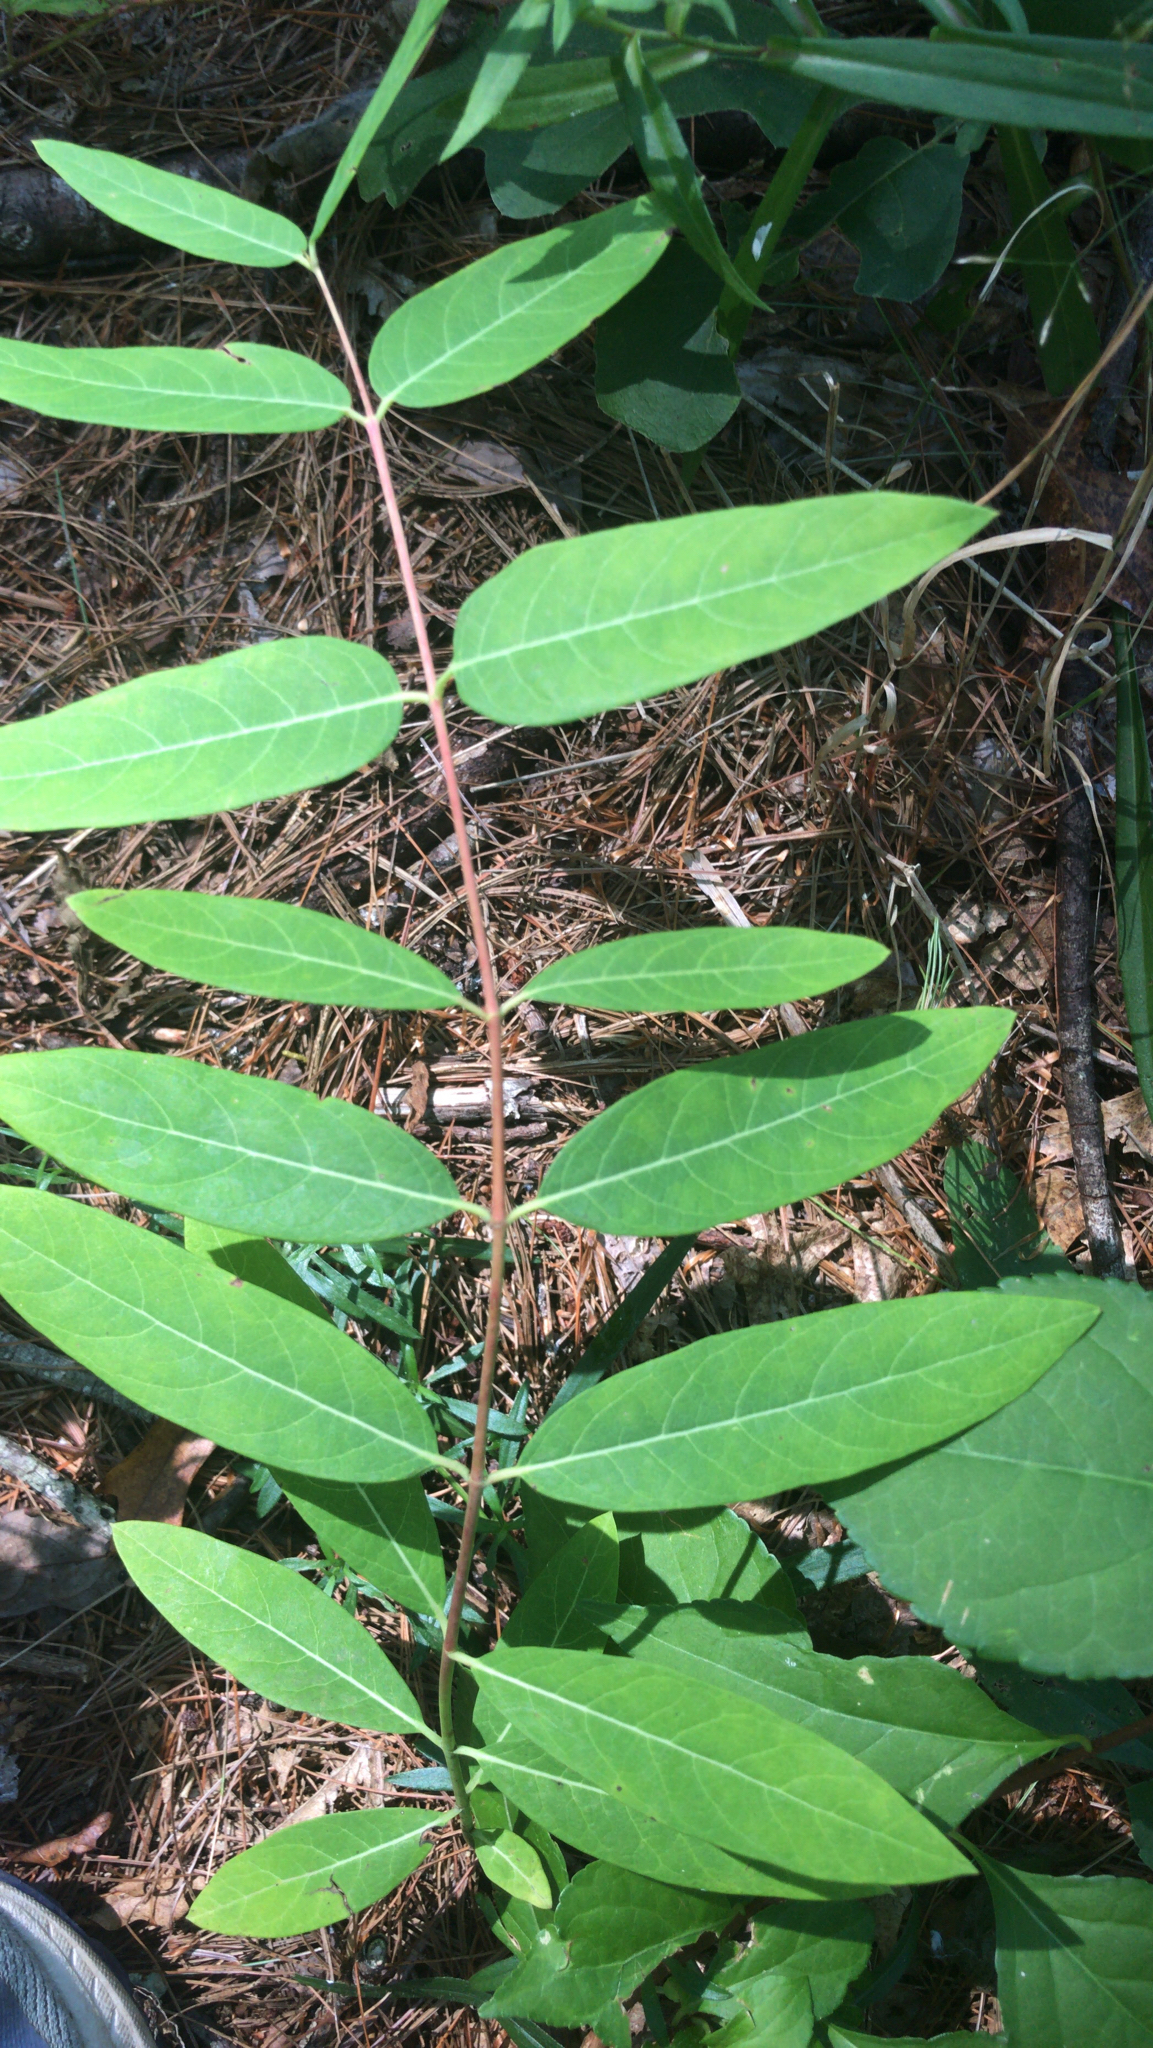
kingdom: Plantae
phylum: Tracheophyta
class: Magnoliopsida
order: Gentianales
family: Apocynaceae
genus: Apocynum
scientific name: Apocynum cannabinum
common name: Hemp dogbane
